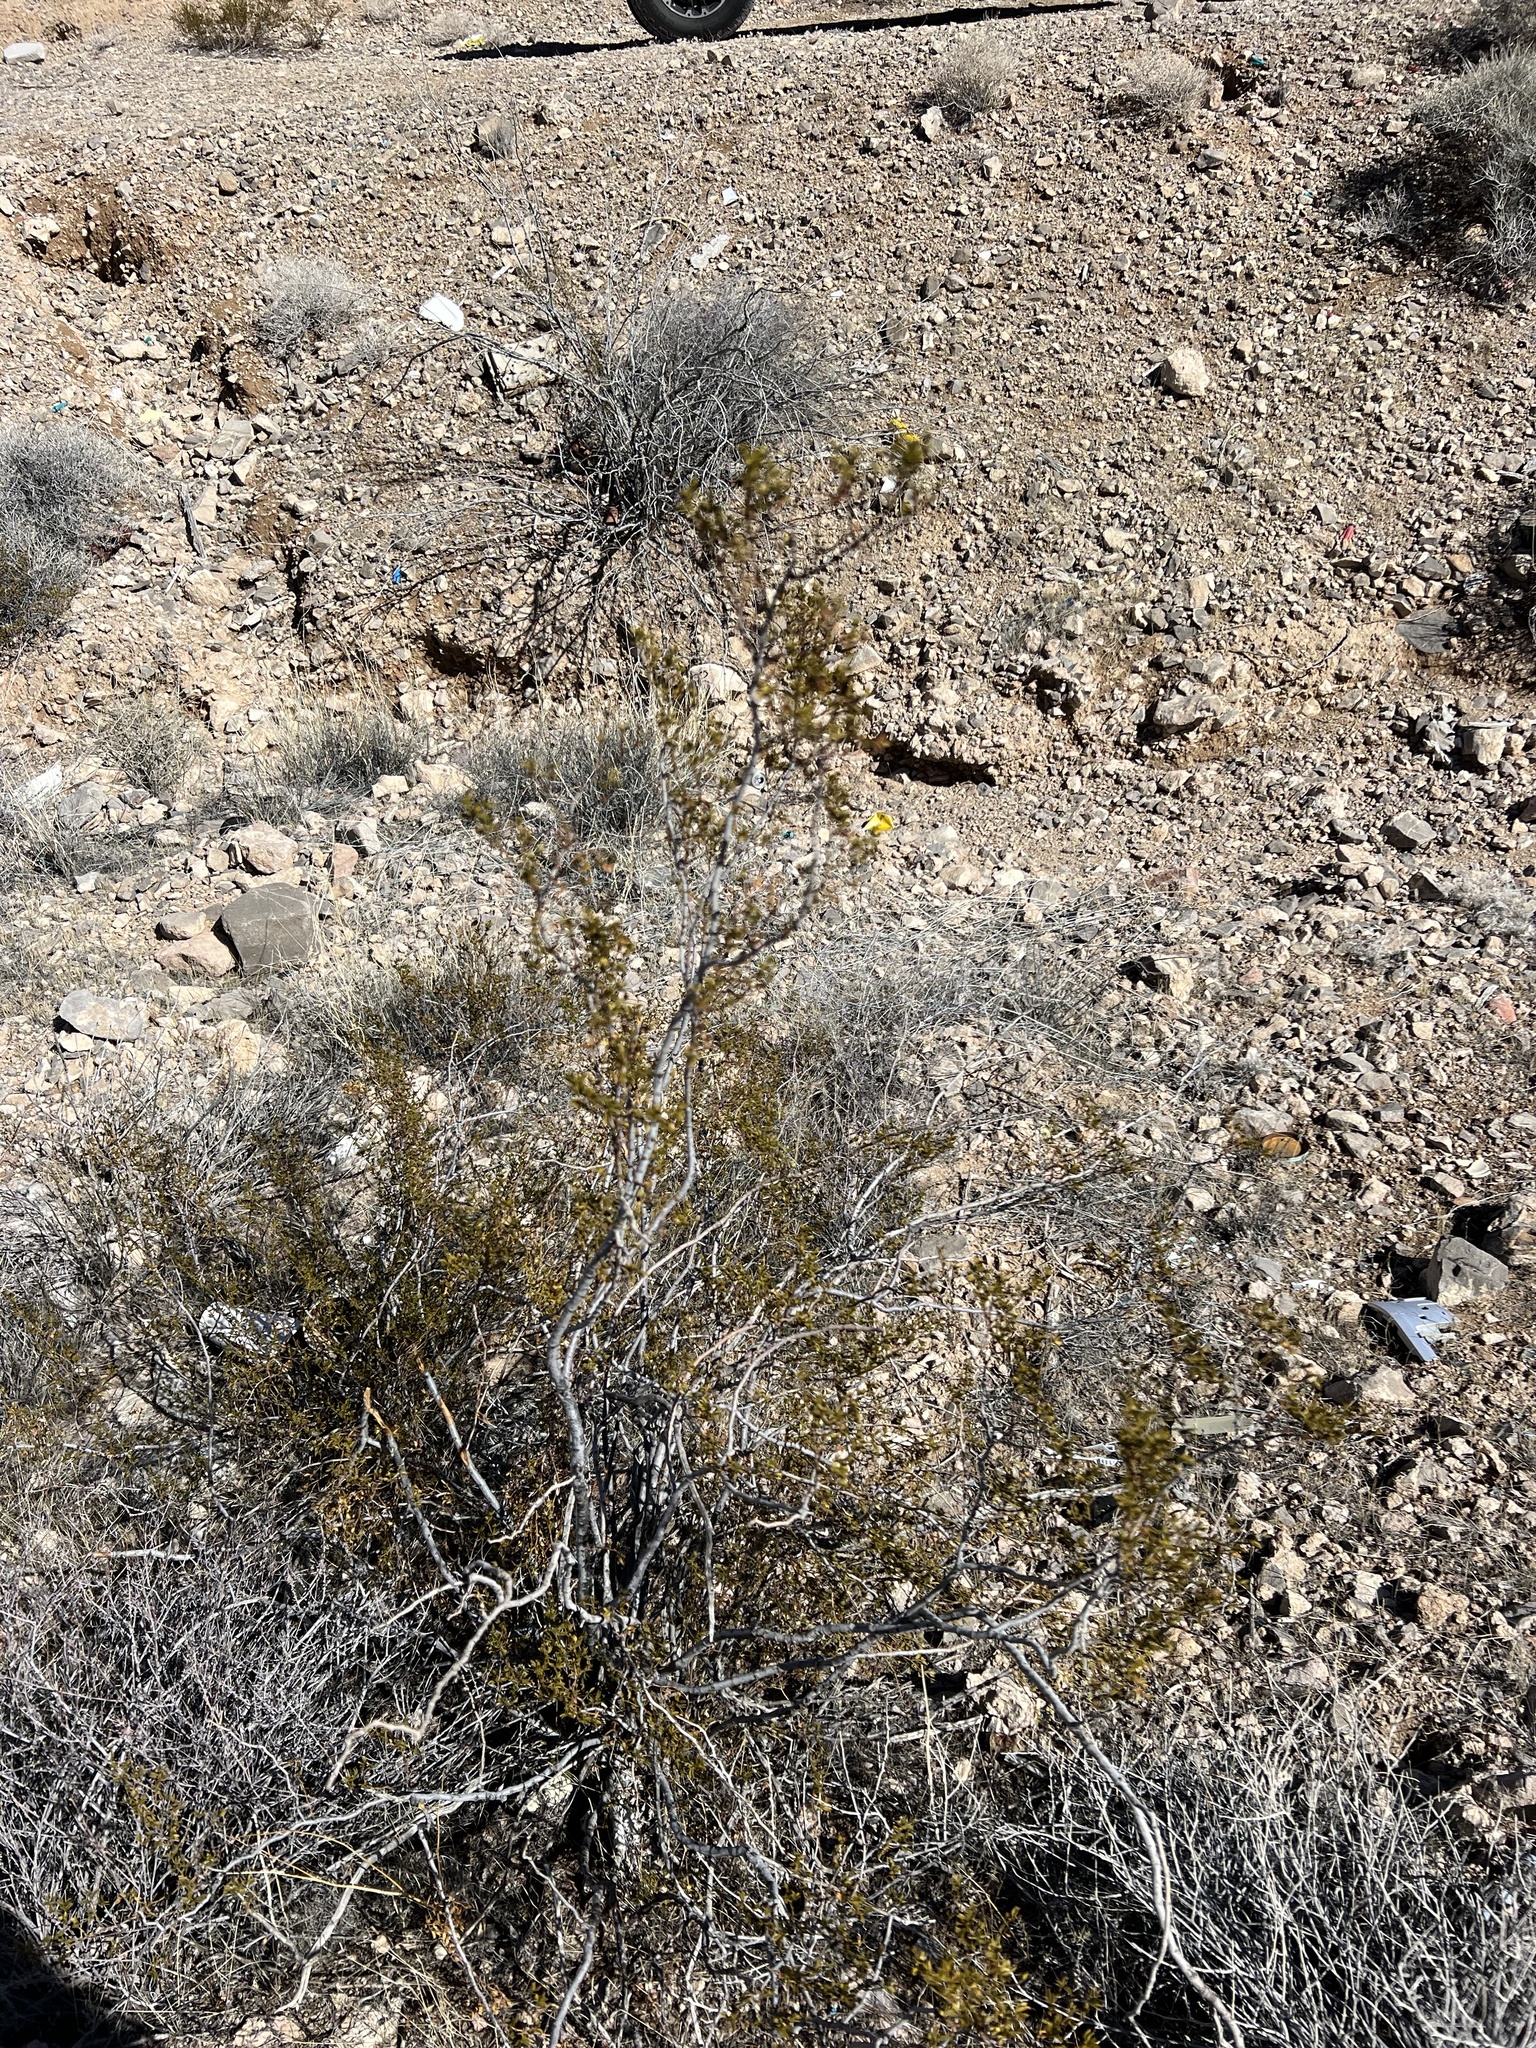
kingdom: Plantae
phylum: Tracheophyta
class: Magnoliopsida
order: Zygophyllales
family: Zygophyllaceae
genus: Larrea
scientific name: Larrea tridentata
